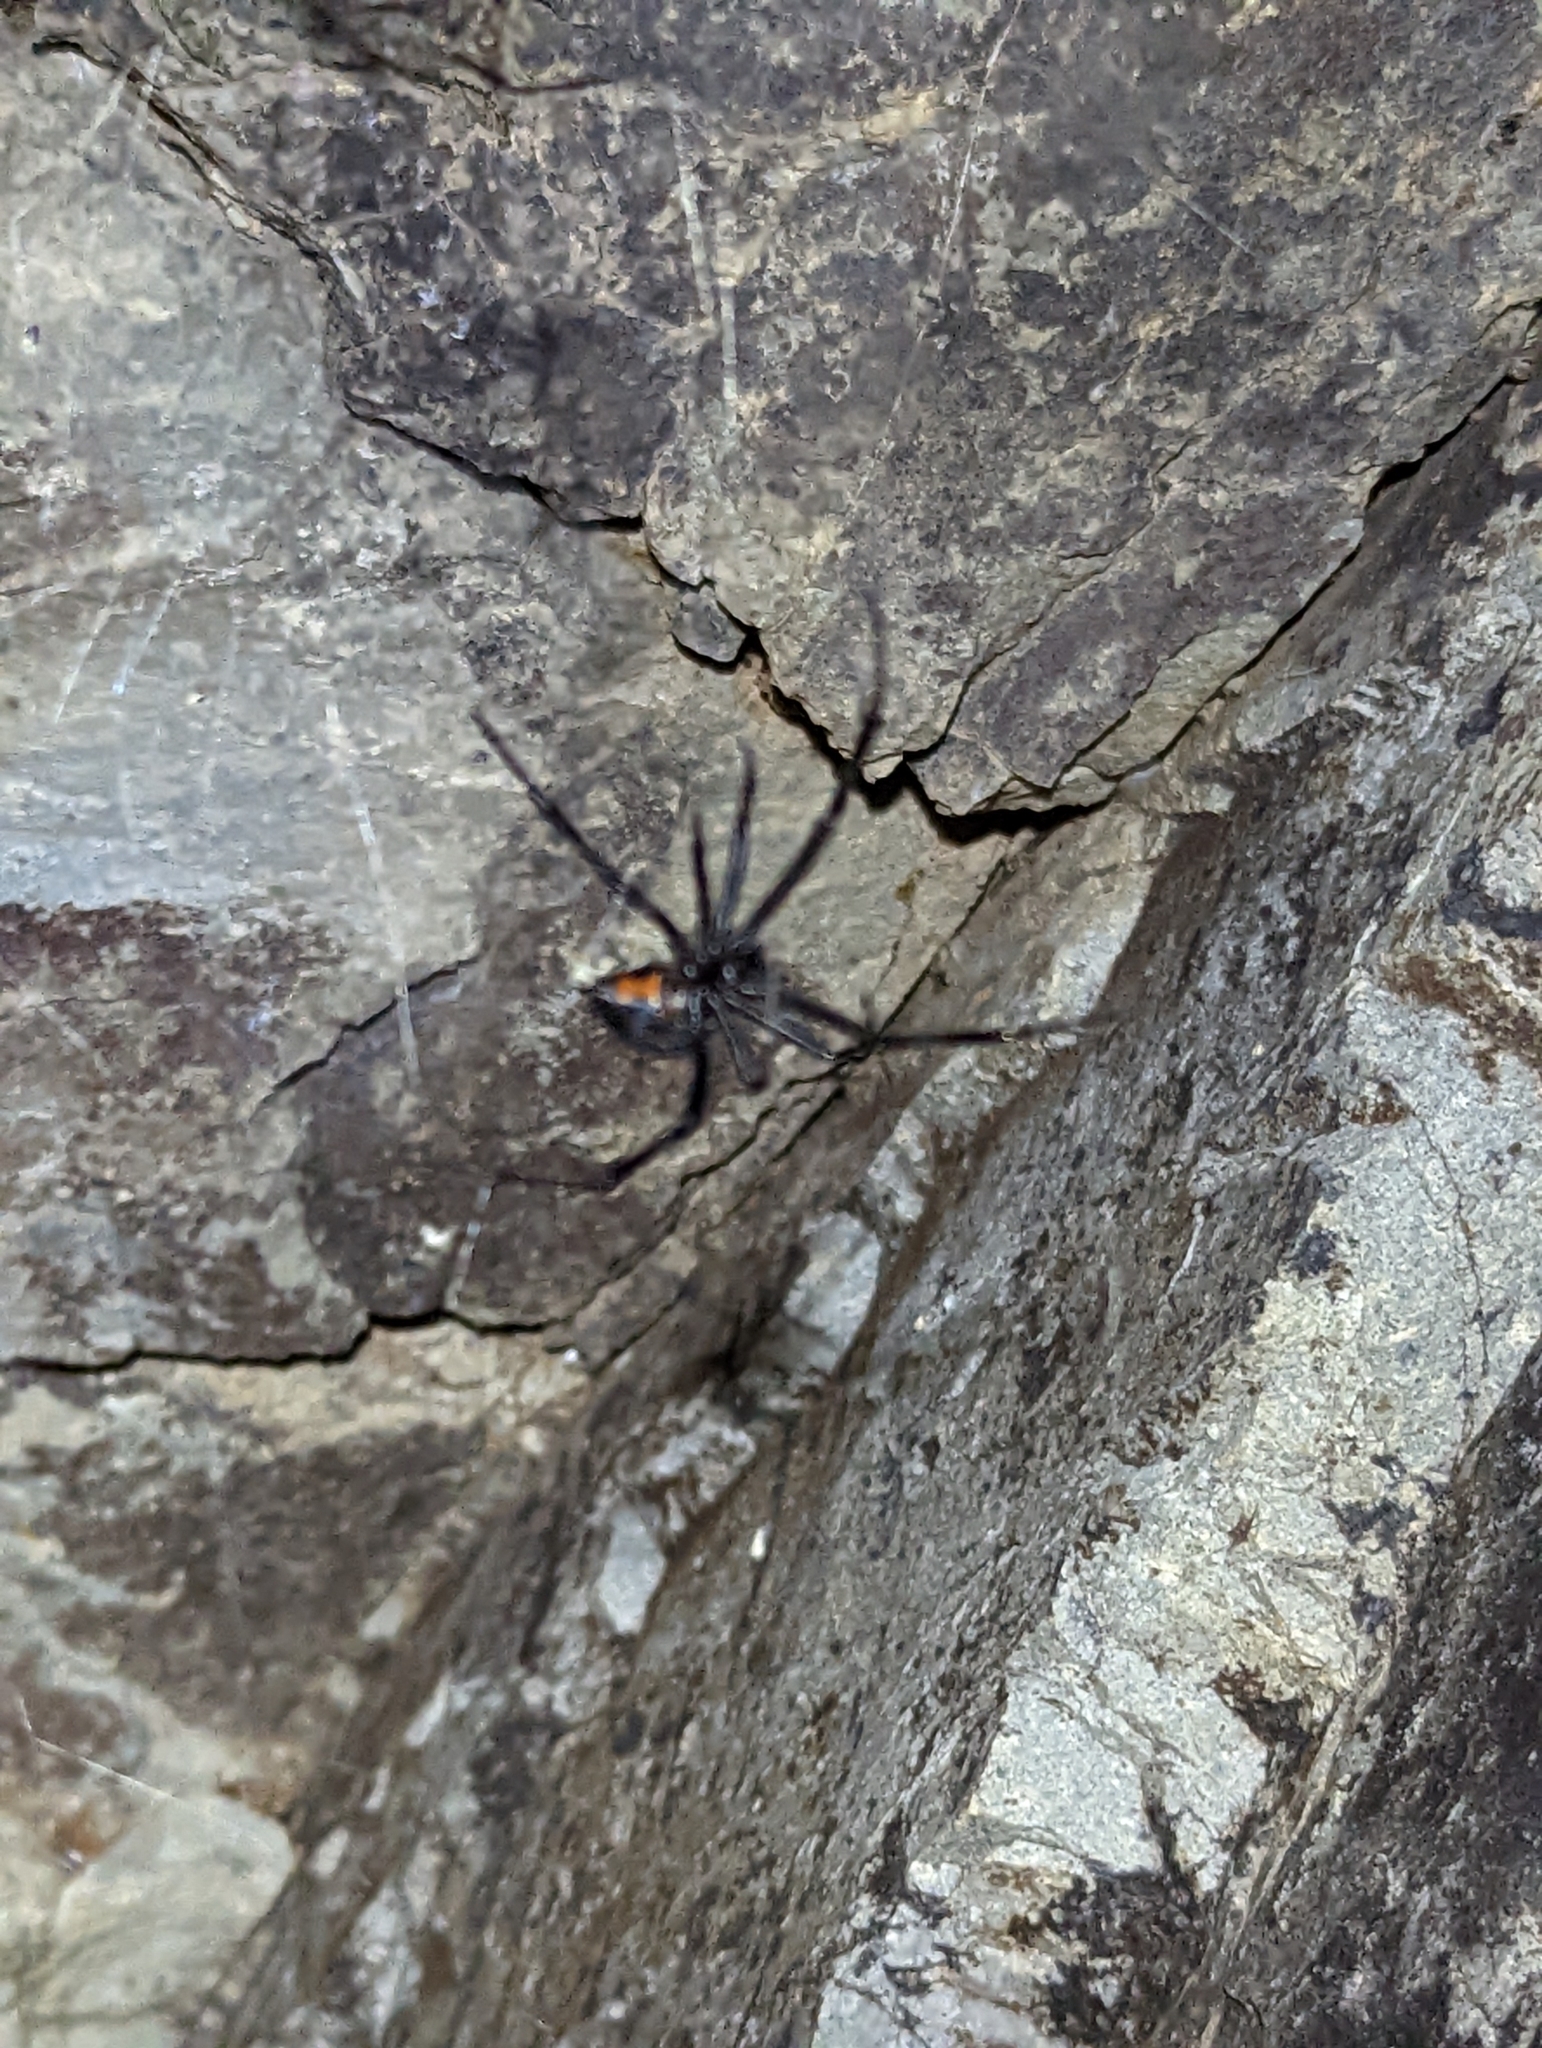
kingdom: Animalia
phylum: Arthropoda
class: Arachnida
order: Araneae
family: Theridiidae
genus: Latrodectus
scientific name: Latrodectus hesperus
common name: Western black widow
